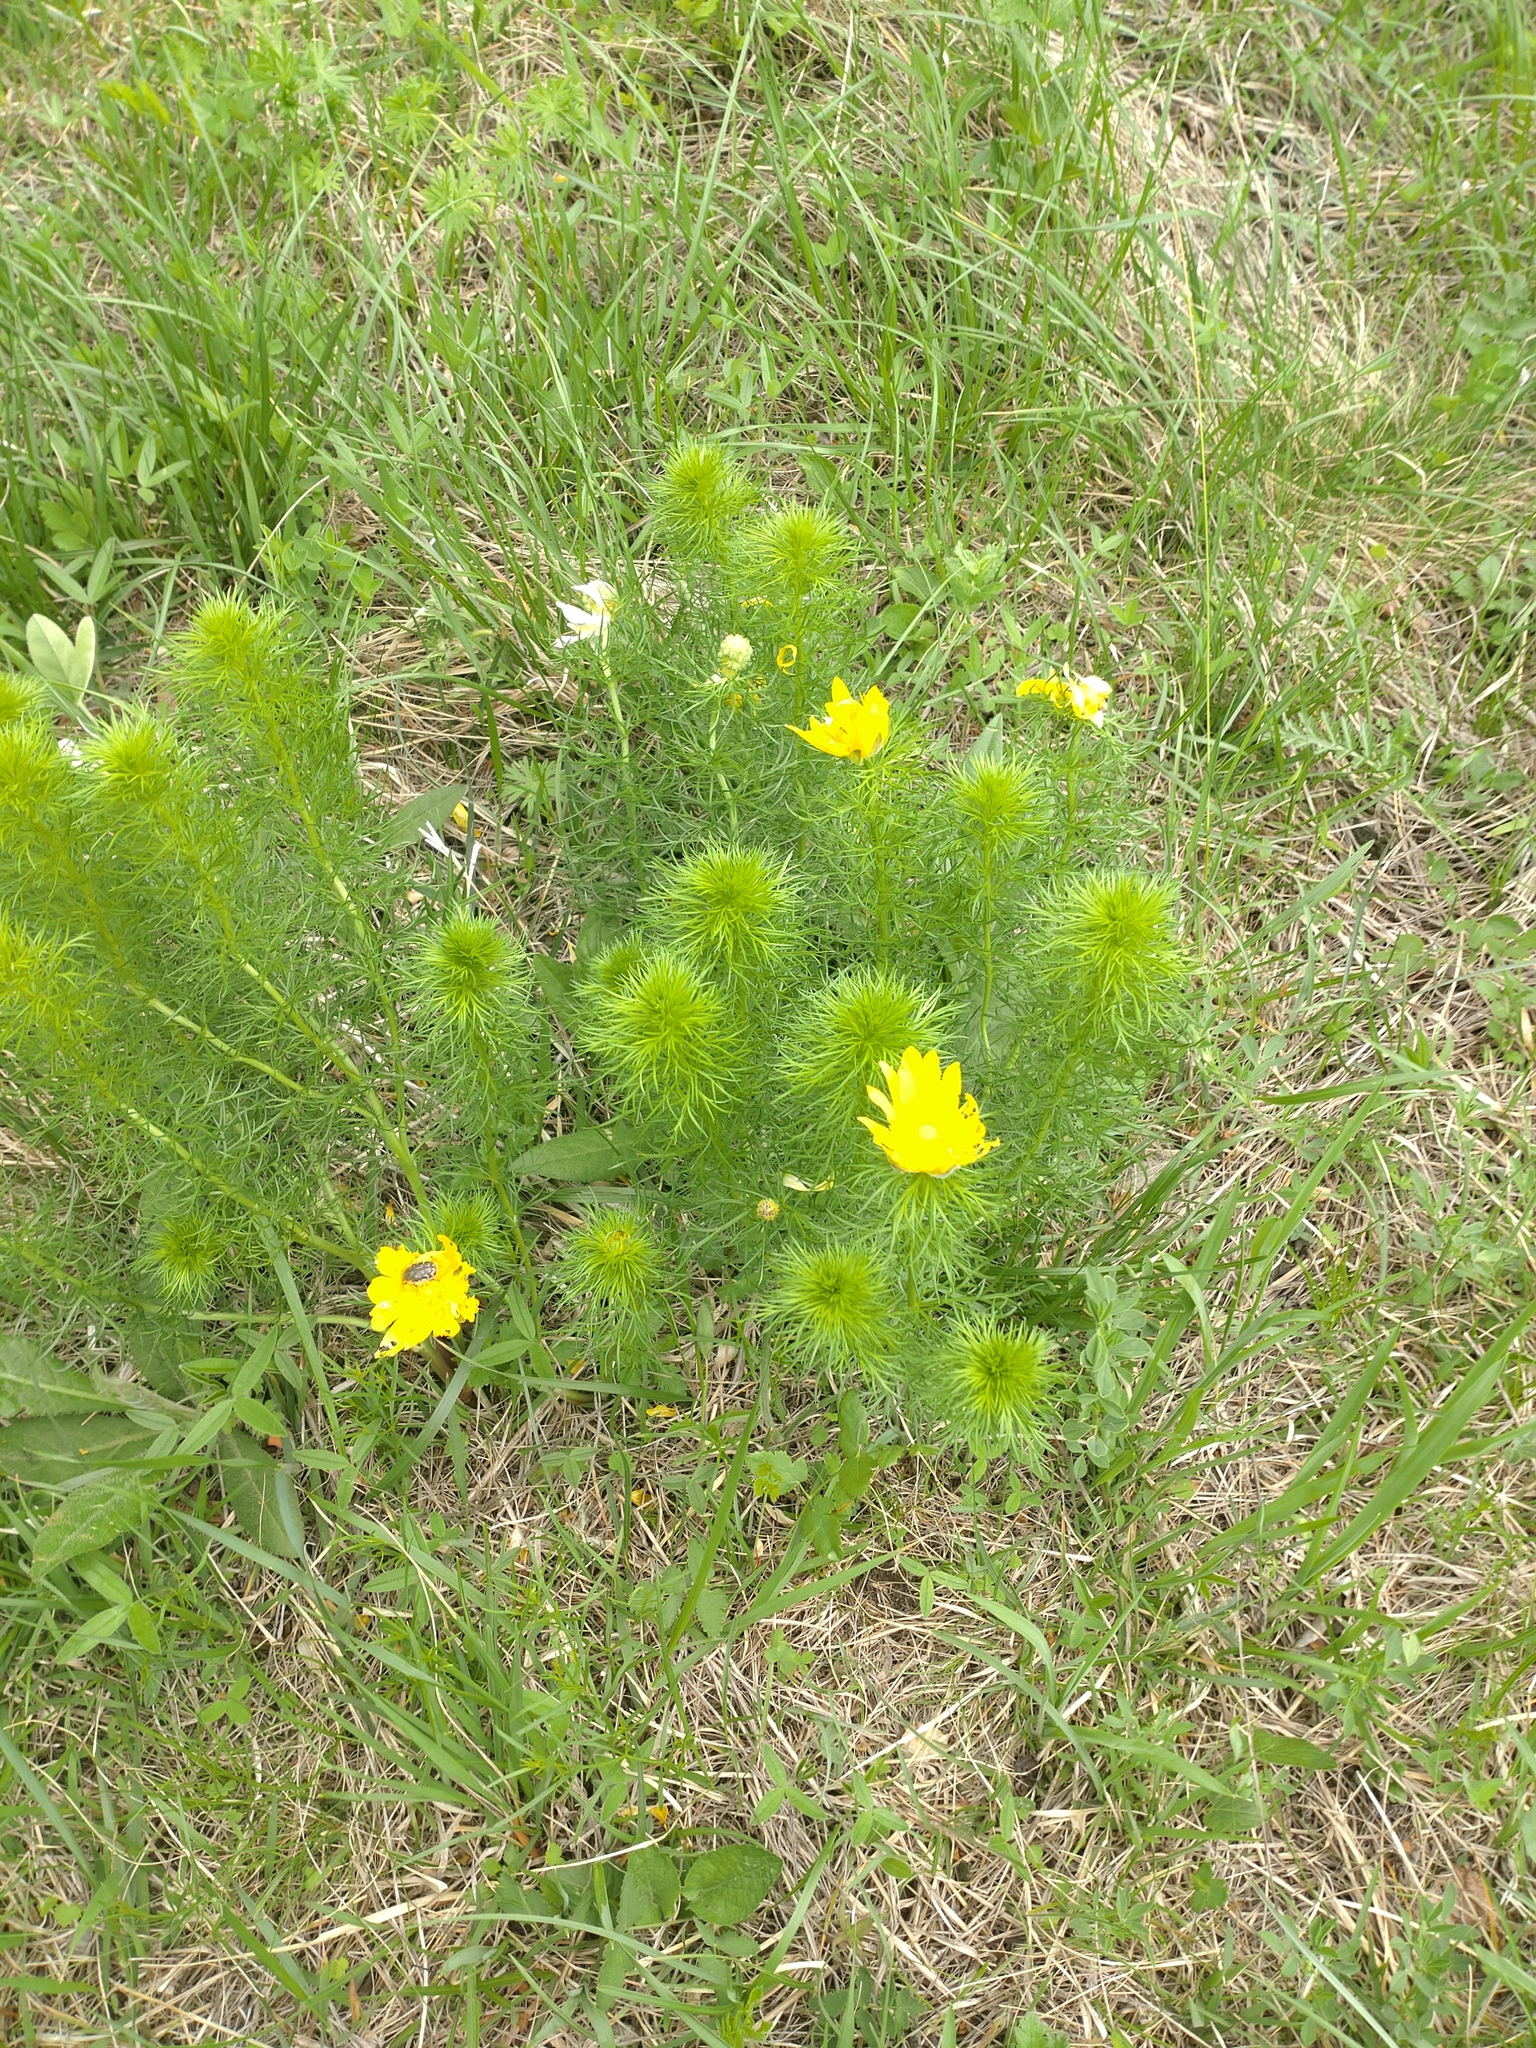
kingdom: Plantae
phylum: Tracheophyta
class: Magnoliopsida
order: Ranunculales
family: Ranunculaceae
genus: Adonis
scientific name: Adonis vernalis
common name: Yellow pheasants-eye
